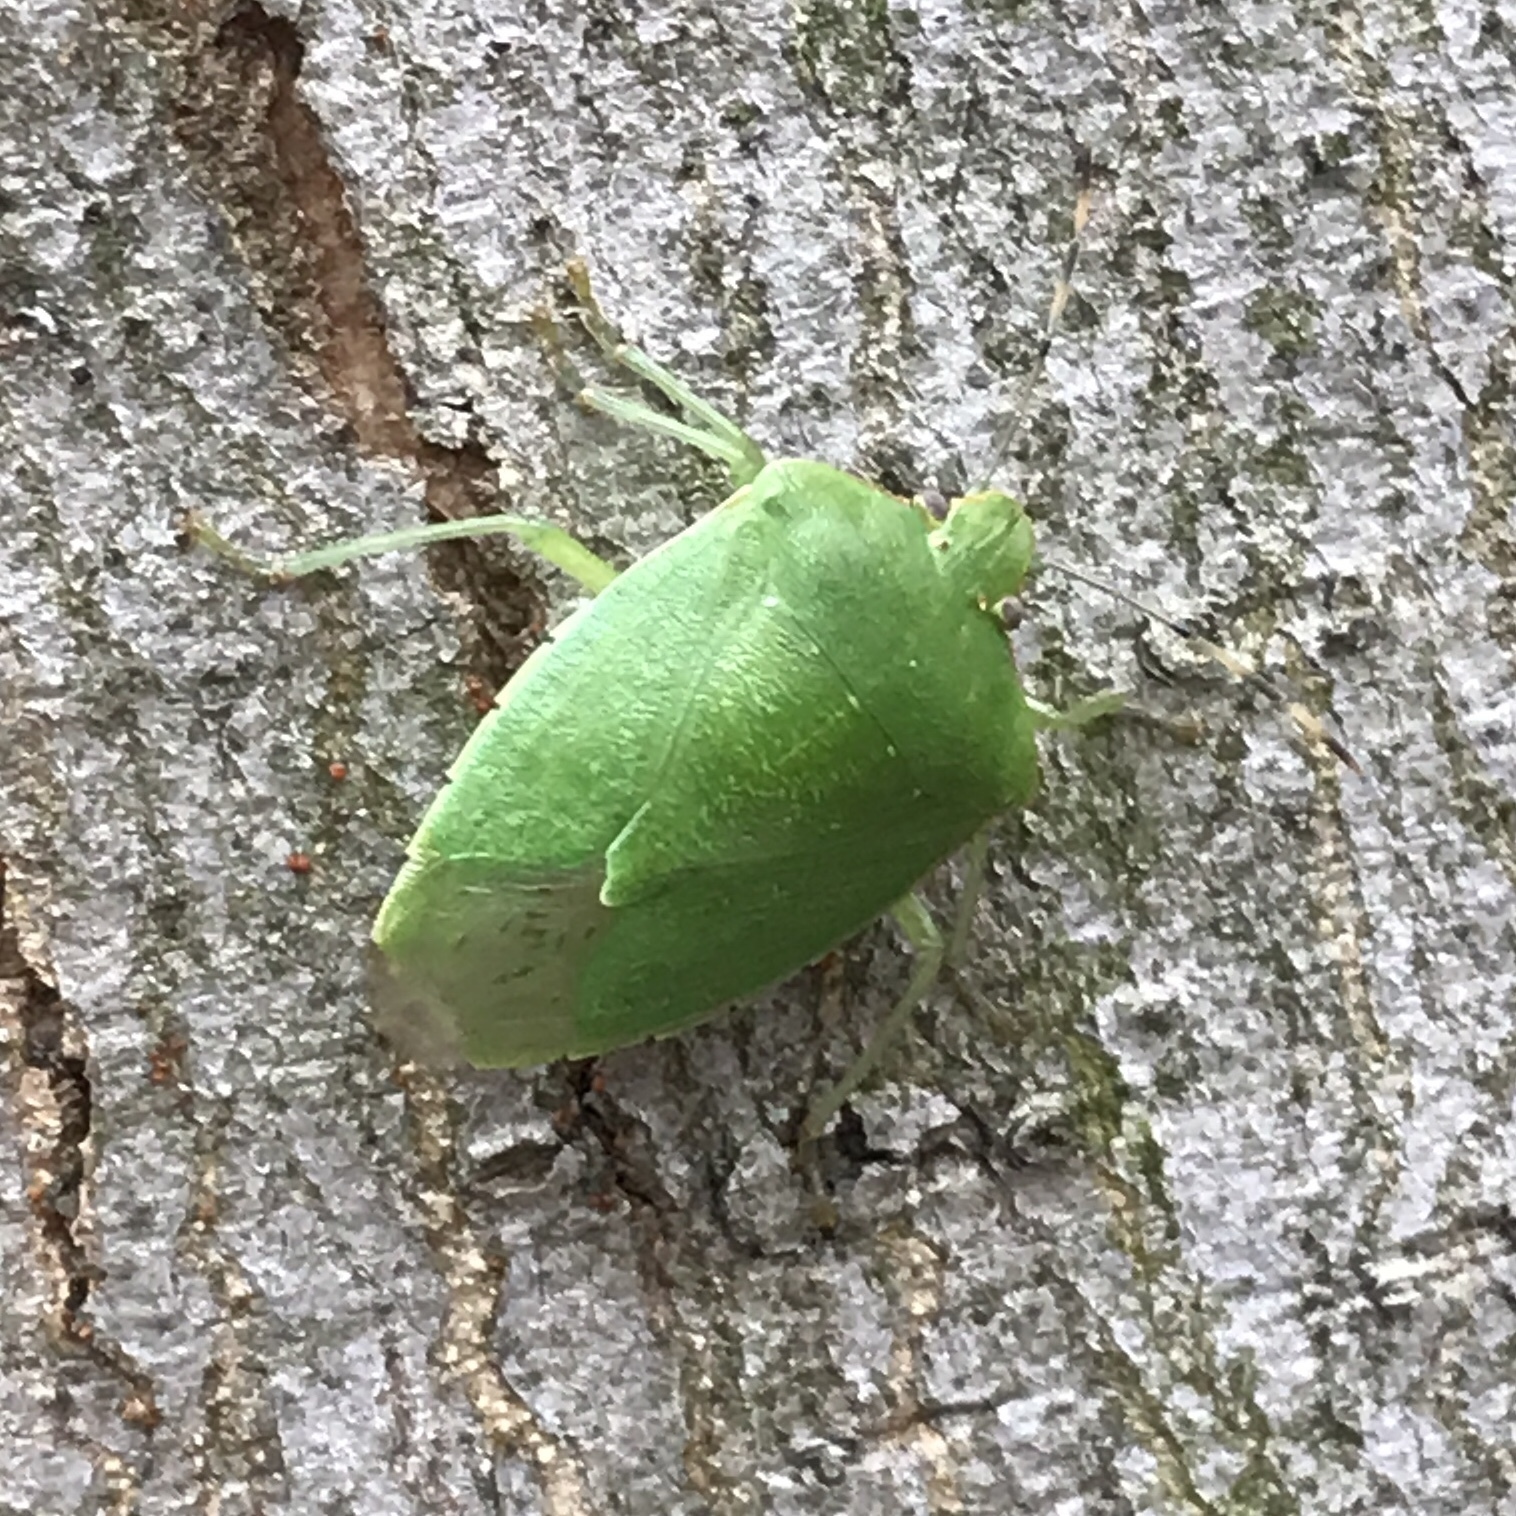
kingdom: Animalia
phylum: Arthropoda
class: Insecta
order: Hemiptera
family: Pentatomidae
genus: Chinavia
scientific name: Chinavia hilaris
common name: Green stink bug
